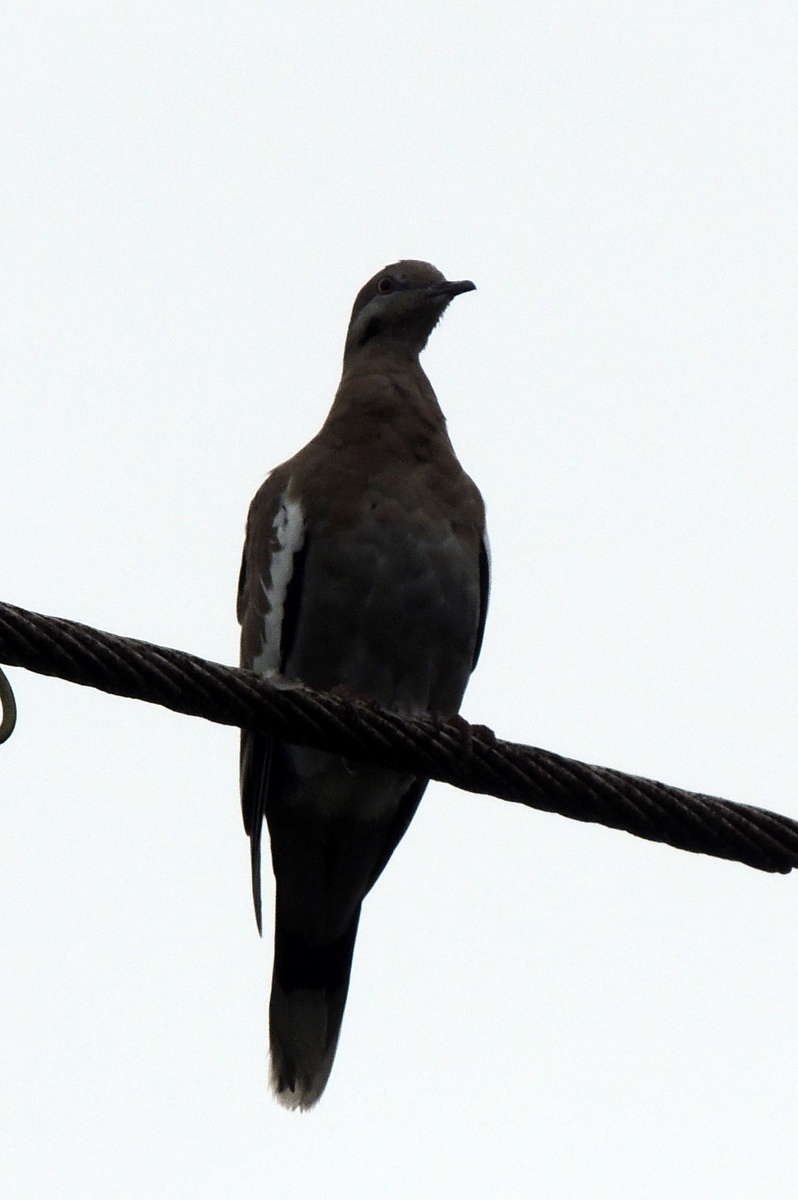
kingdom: Animalia
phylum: Chordata
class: Aves
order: Columbiformes
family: Columbidae
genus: Zenaida
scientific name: Zenaida asiatica
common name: White-winged dove
